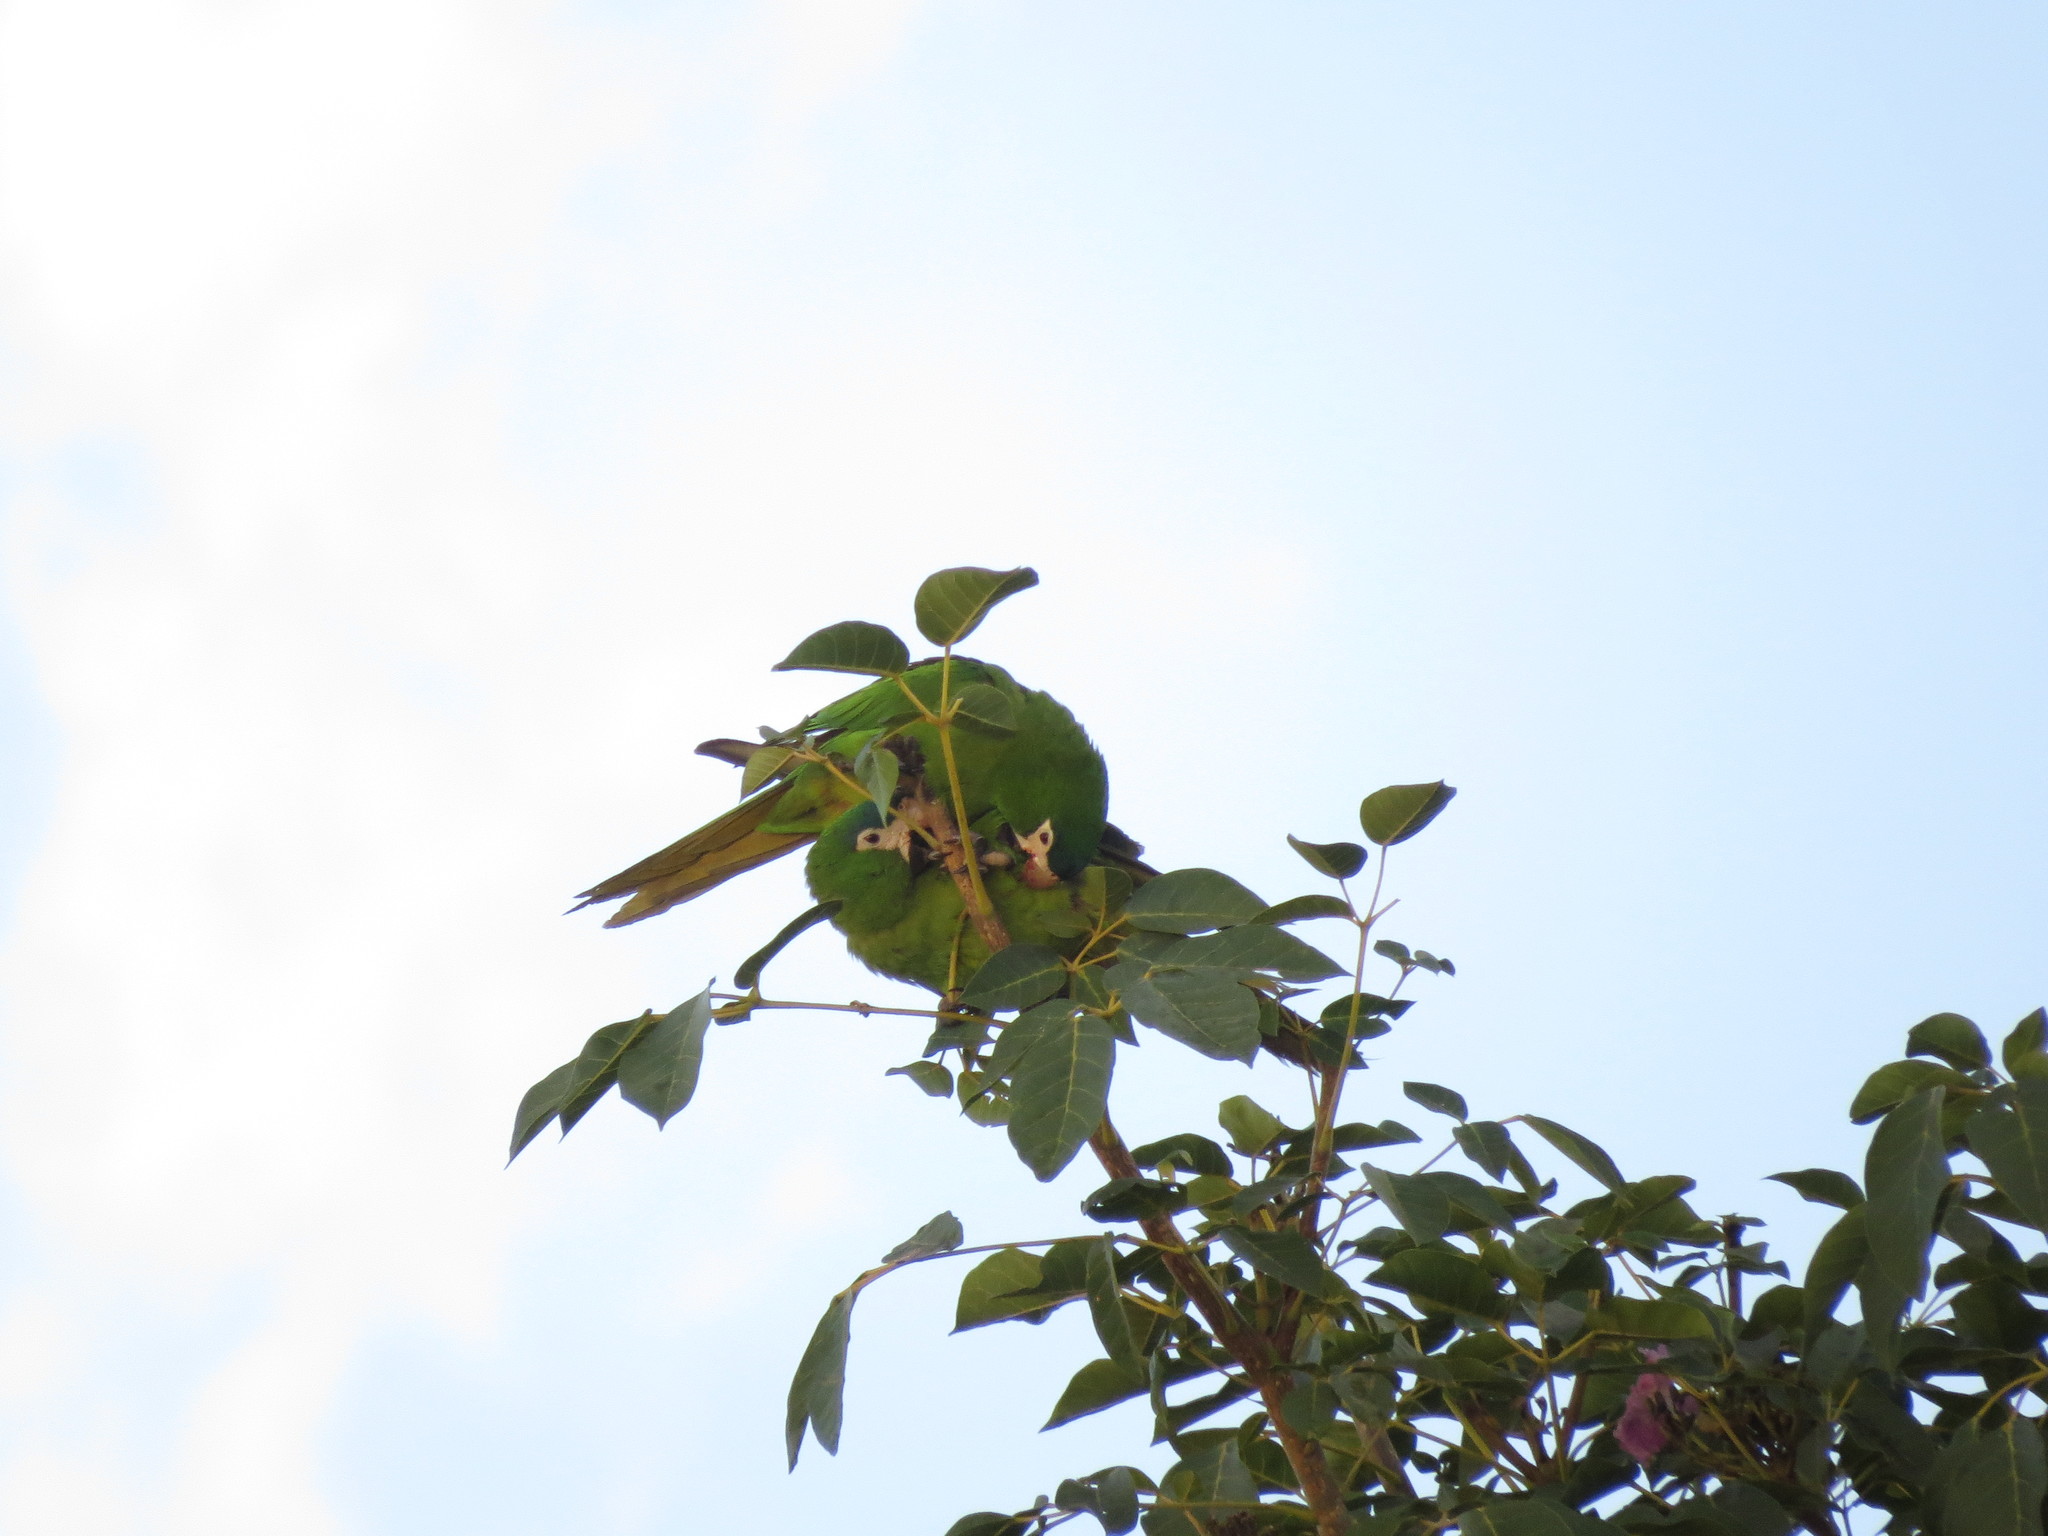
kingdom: Animalia
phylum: Chordata
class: Aves
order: Psittaciformes
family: Psittacidae
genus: Diopsittaca
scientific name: Diopsittaca nobilis
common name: Red-shouldered macaw
